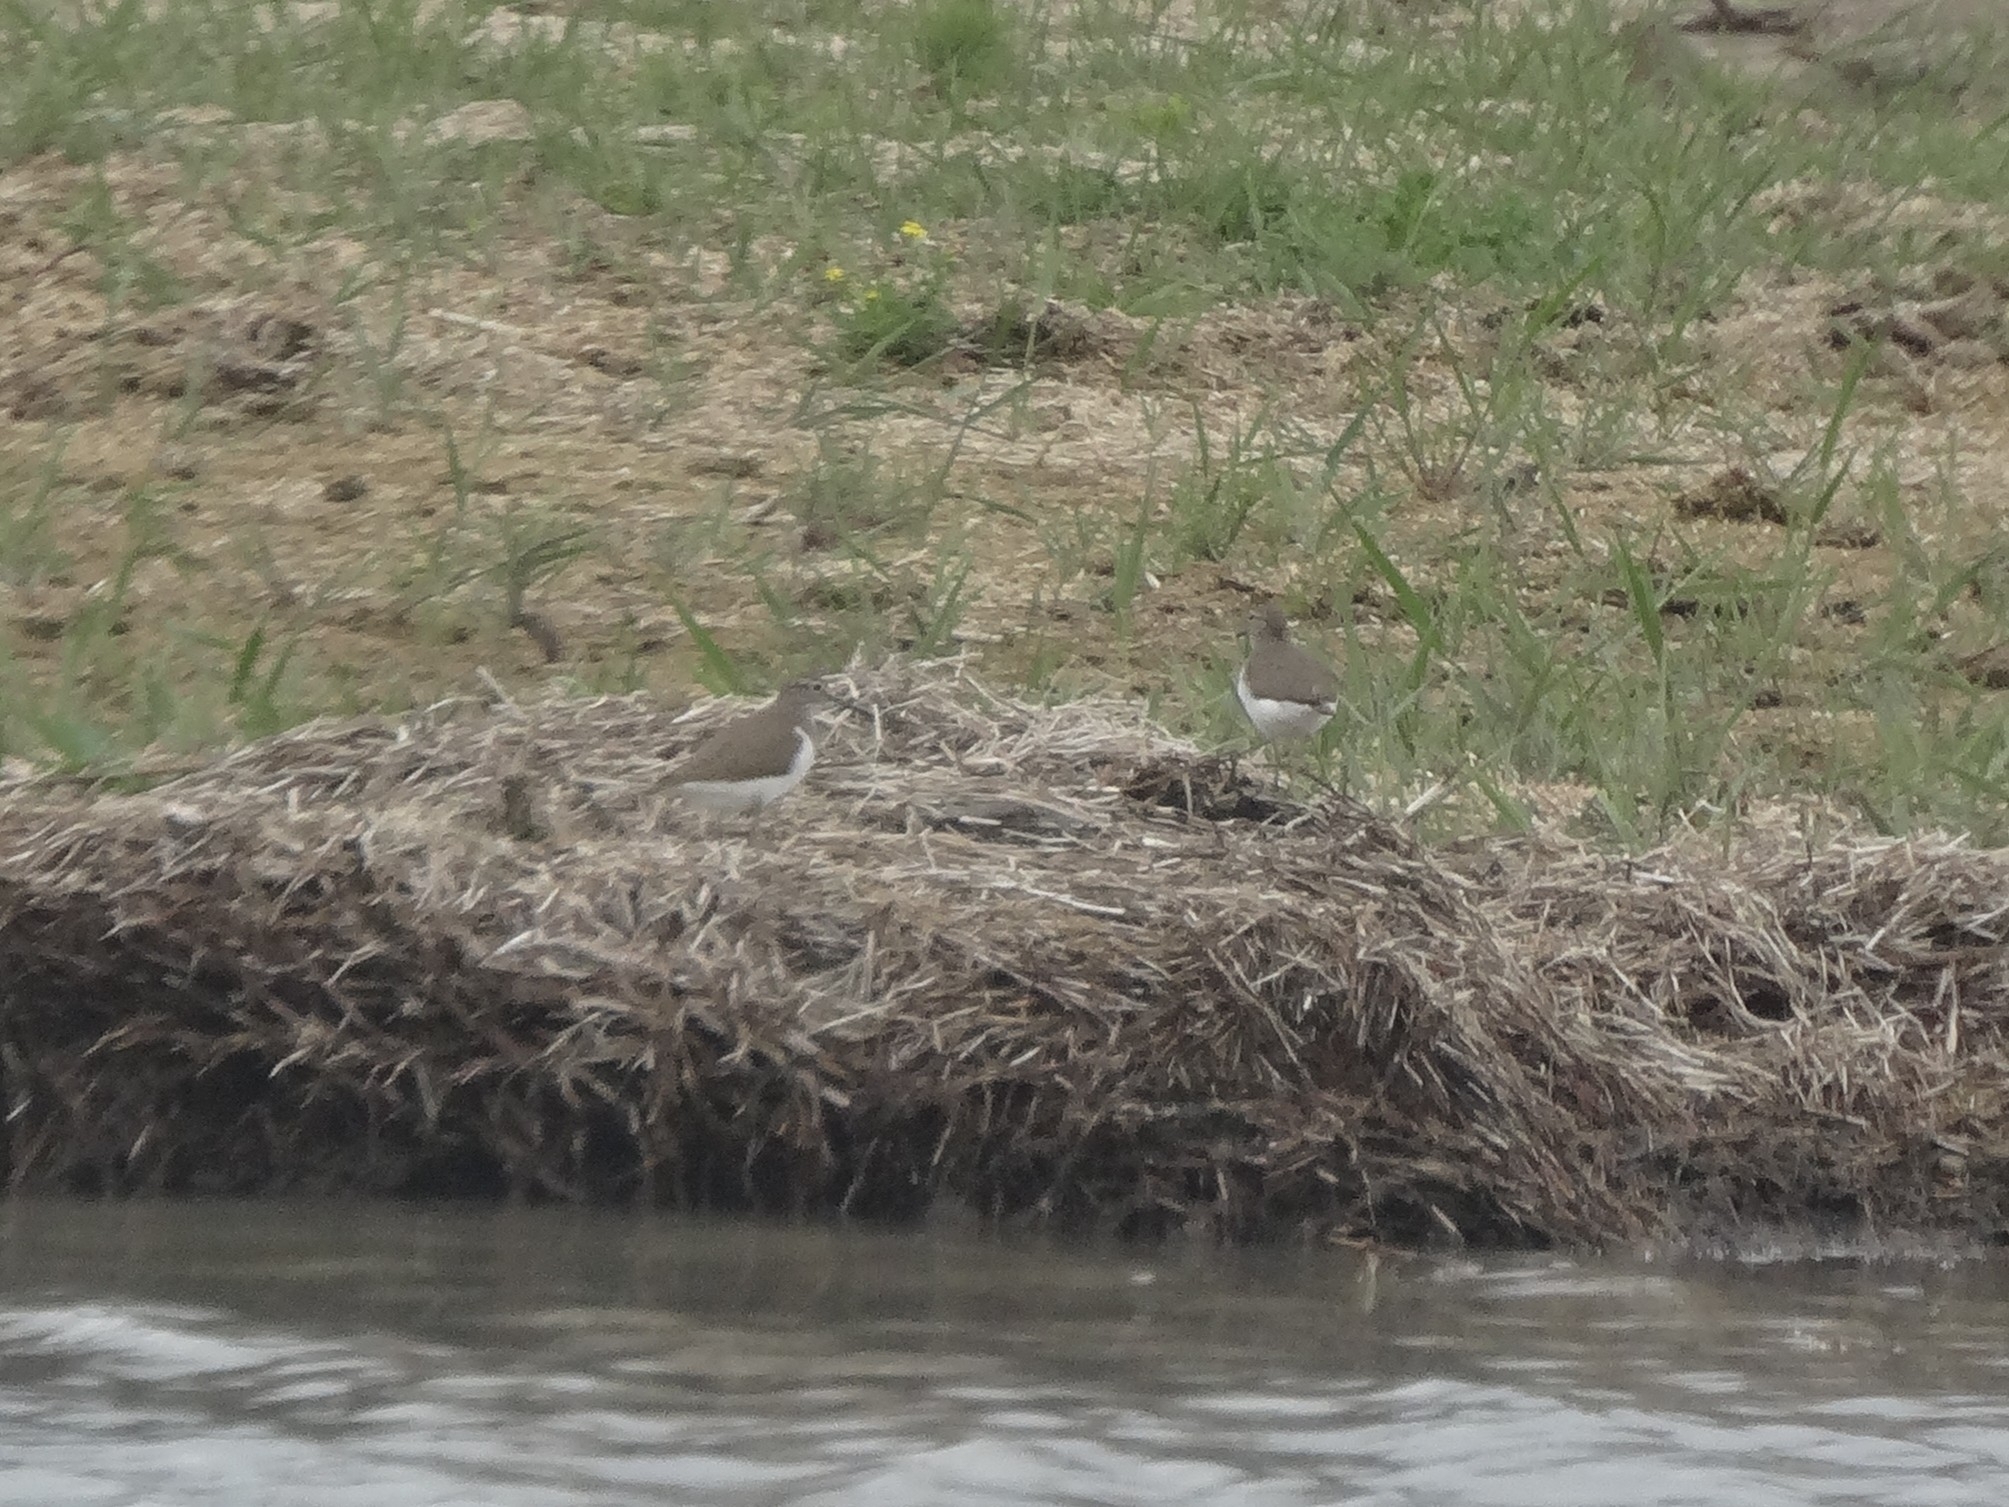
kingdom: Animalia
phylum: Chordata
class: Aves
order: Charadriiformes
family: Scolopacidae
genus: Actitis
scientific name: Actitis hypoleucos
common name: Common sandpiper
